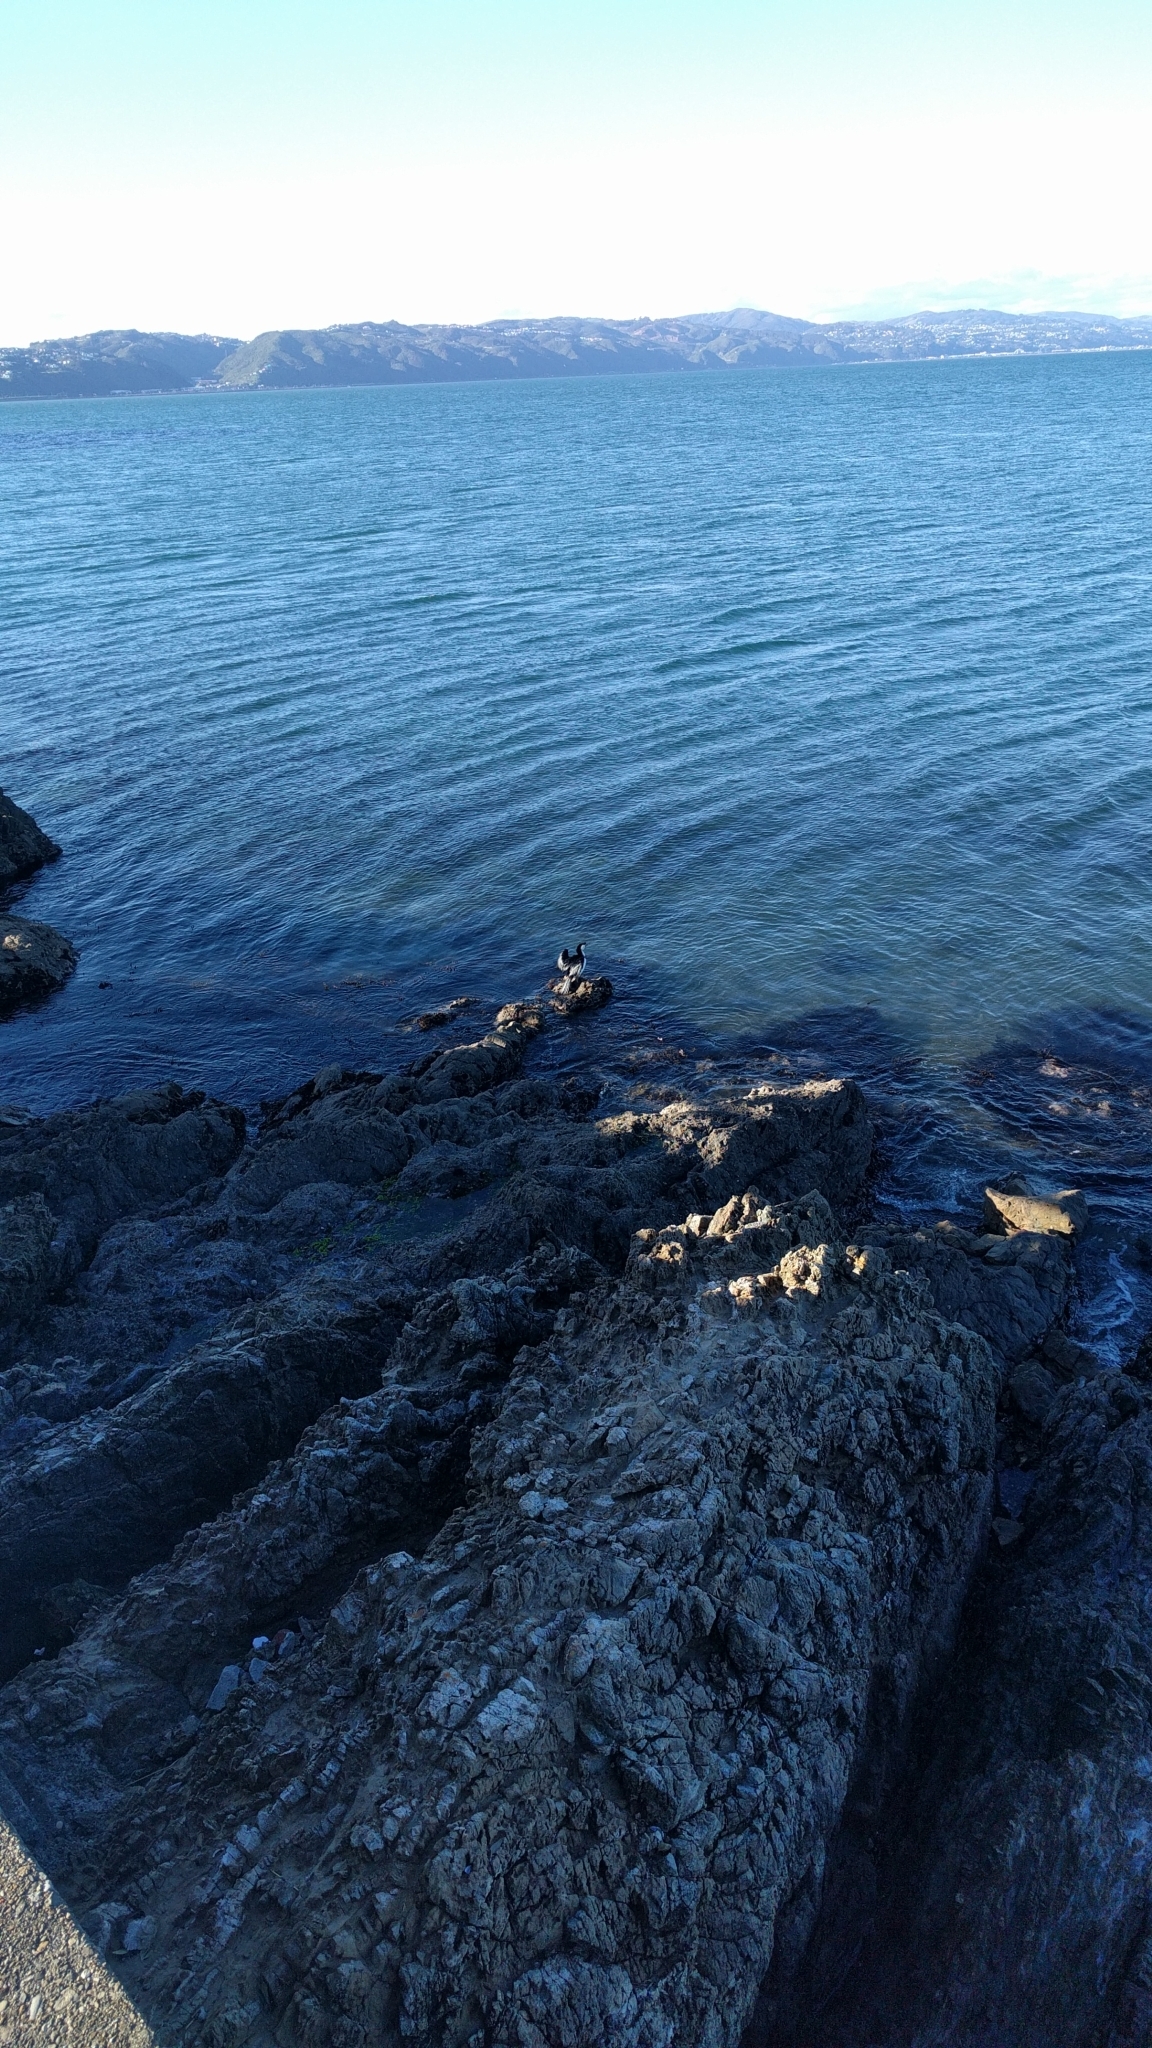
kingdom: Animalia
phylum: Chordata
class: Aves
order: Suliformes
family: Phalacrocoracidae
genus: Microcarbo
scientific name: Microcarbo melanoleucos
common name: Little pied cormorant
